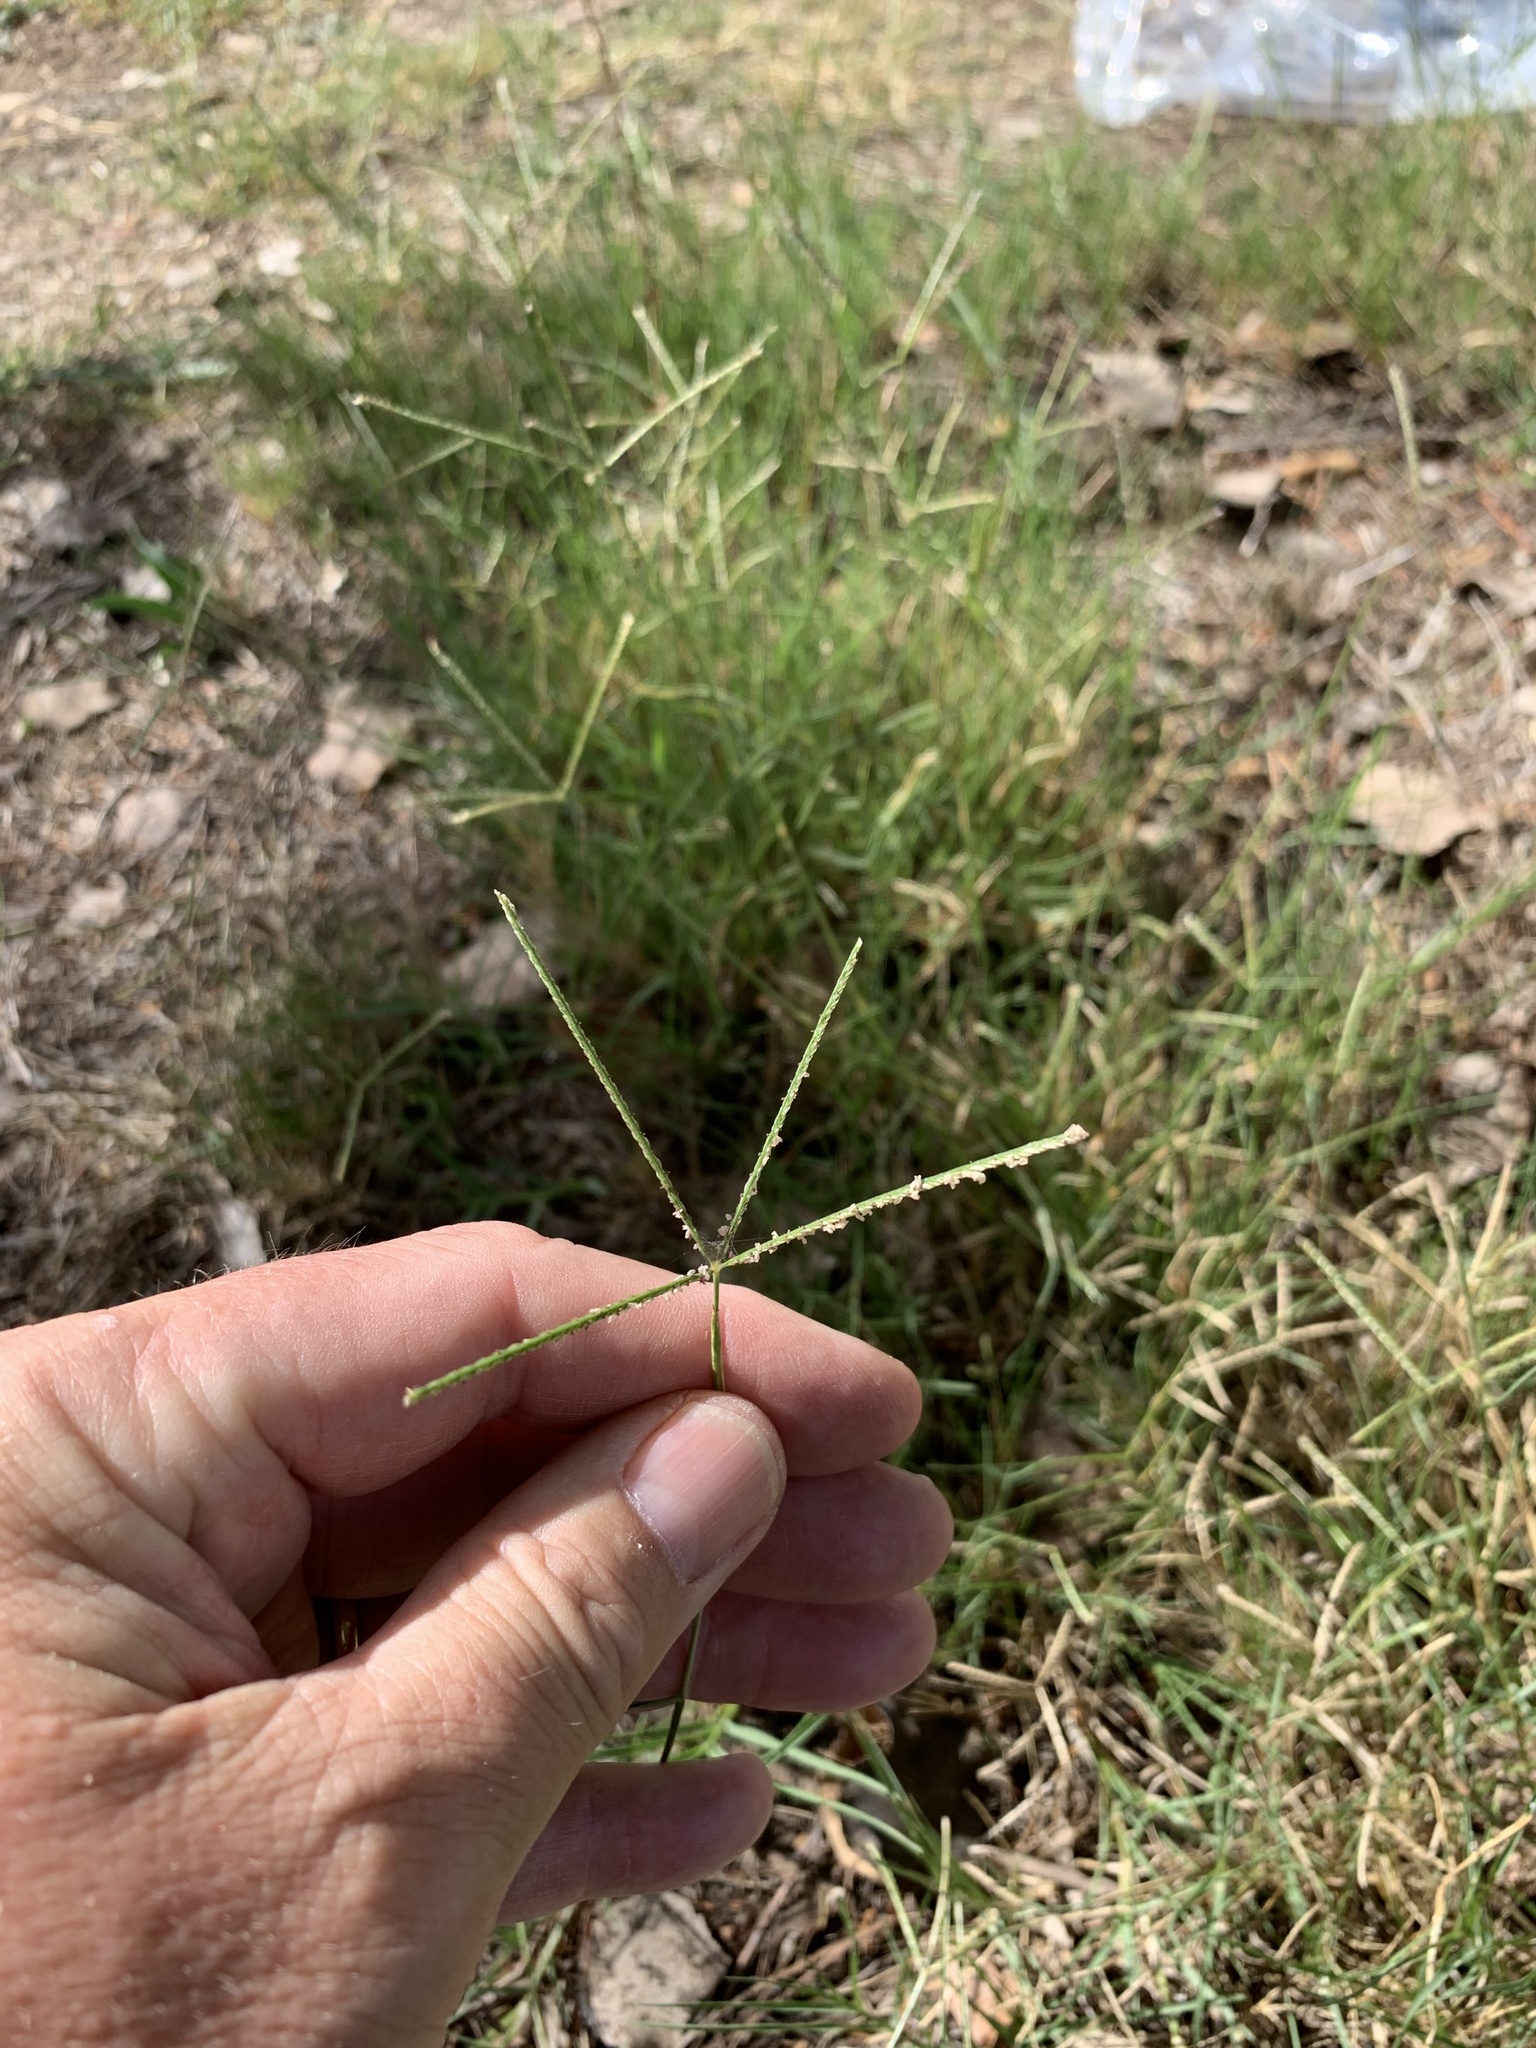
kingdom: Plantae
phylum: Tracheophyta
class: Liliopsida
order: Poales
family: Poaceae
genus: Cynodon
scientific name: Cynodon dactylon
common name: Bermuda grass
